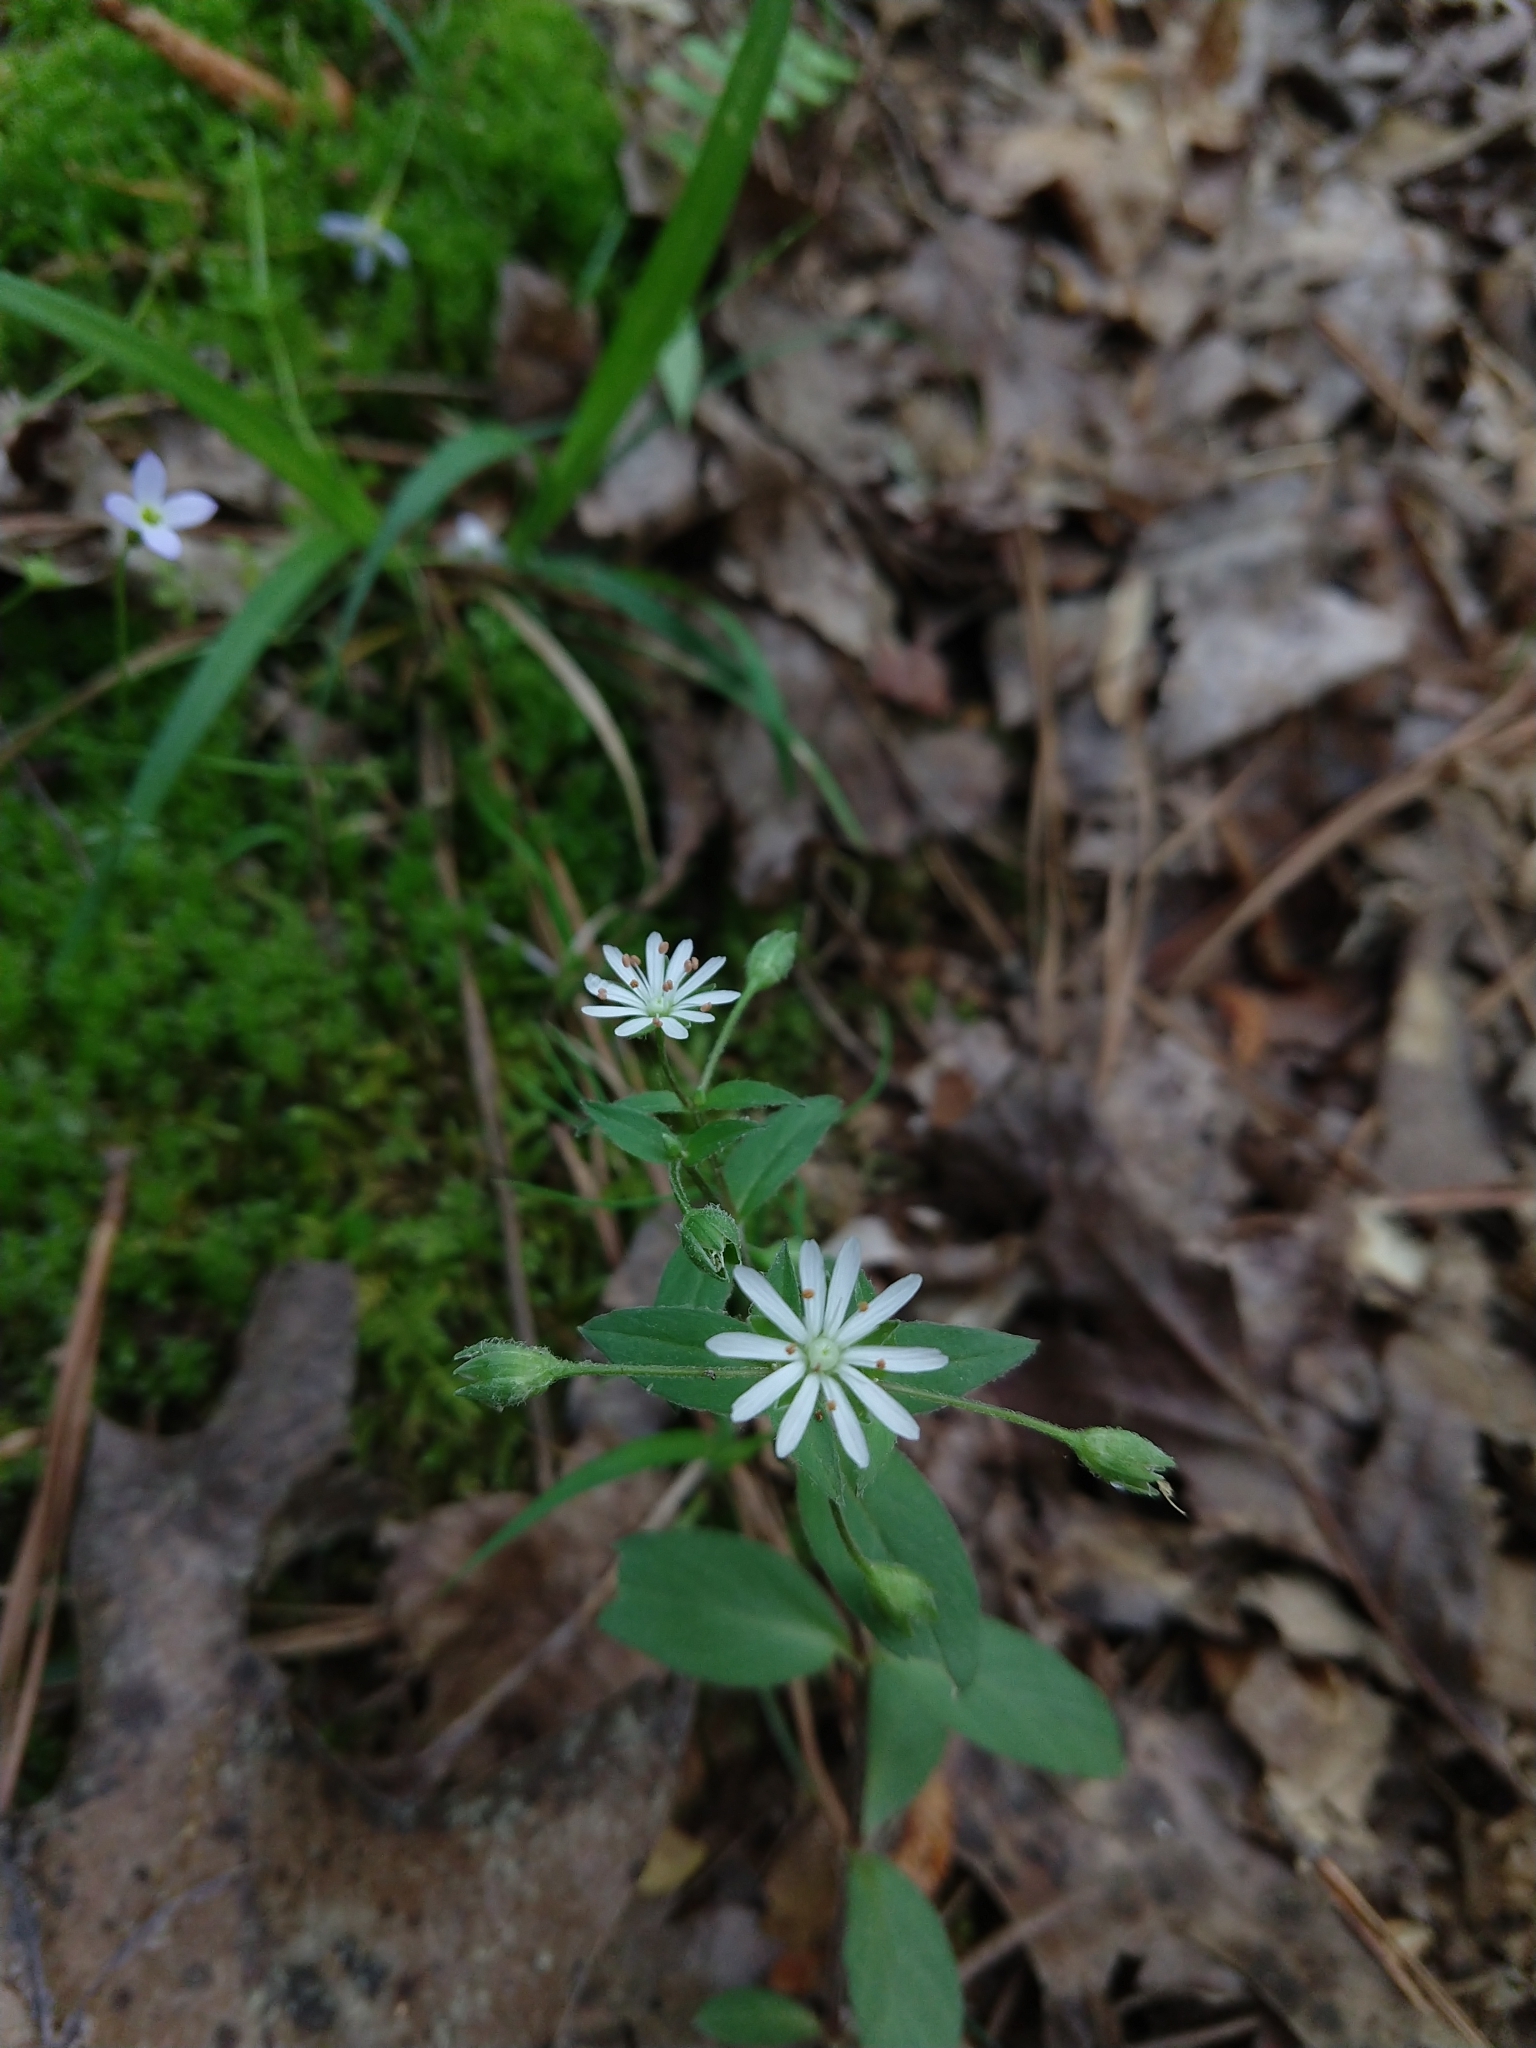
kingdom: Plantae
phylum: Tracheophyta
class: Magnoliopsida
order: Caryophyllales
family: Caryophyllaceae
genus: Stellaria
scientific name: Stellaria pubera
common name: Star chickweed
